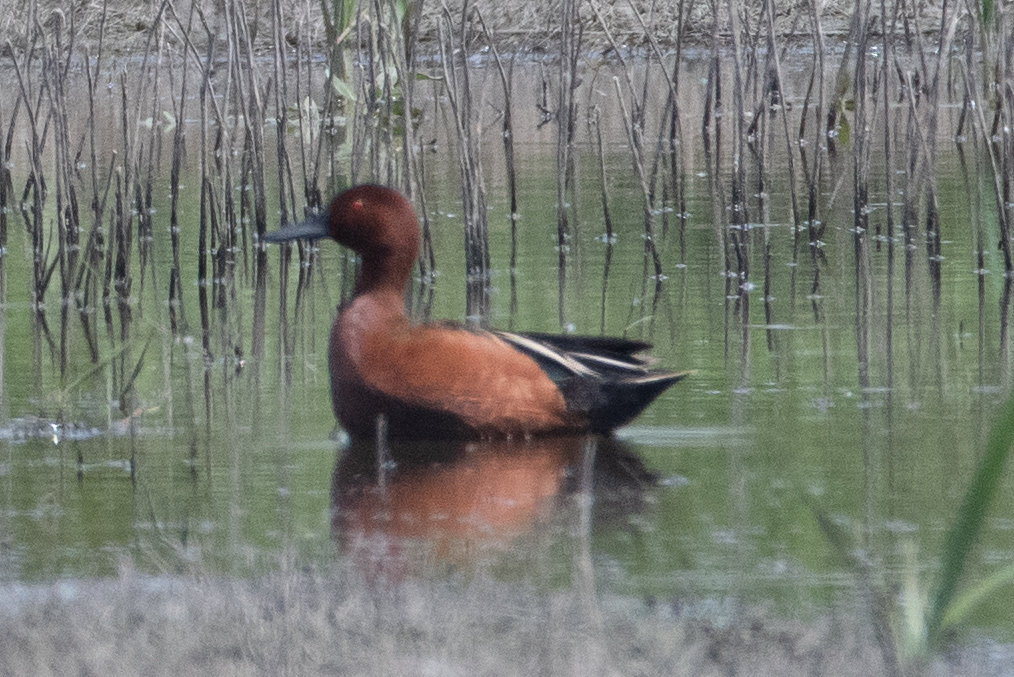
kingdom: Animalia
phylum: Chordata
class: Aves
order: Anseriformes
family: Anatidae
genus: Spatula
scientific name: Spatula cyanoptera
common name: Cinnamon teal
